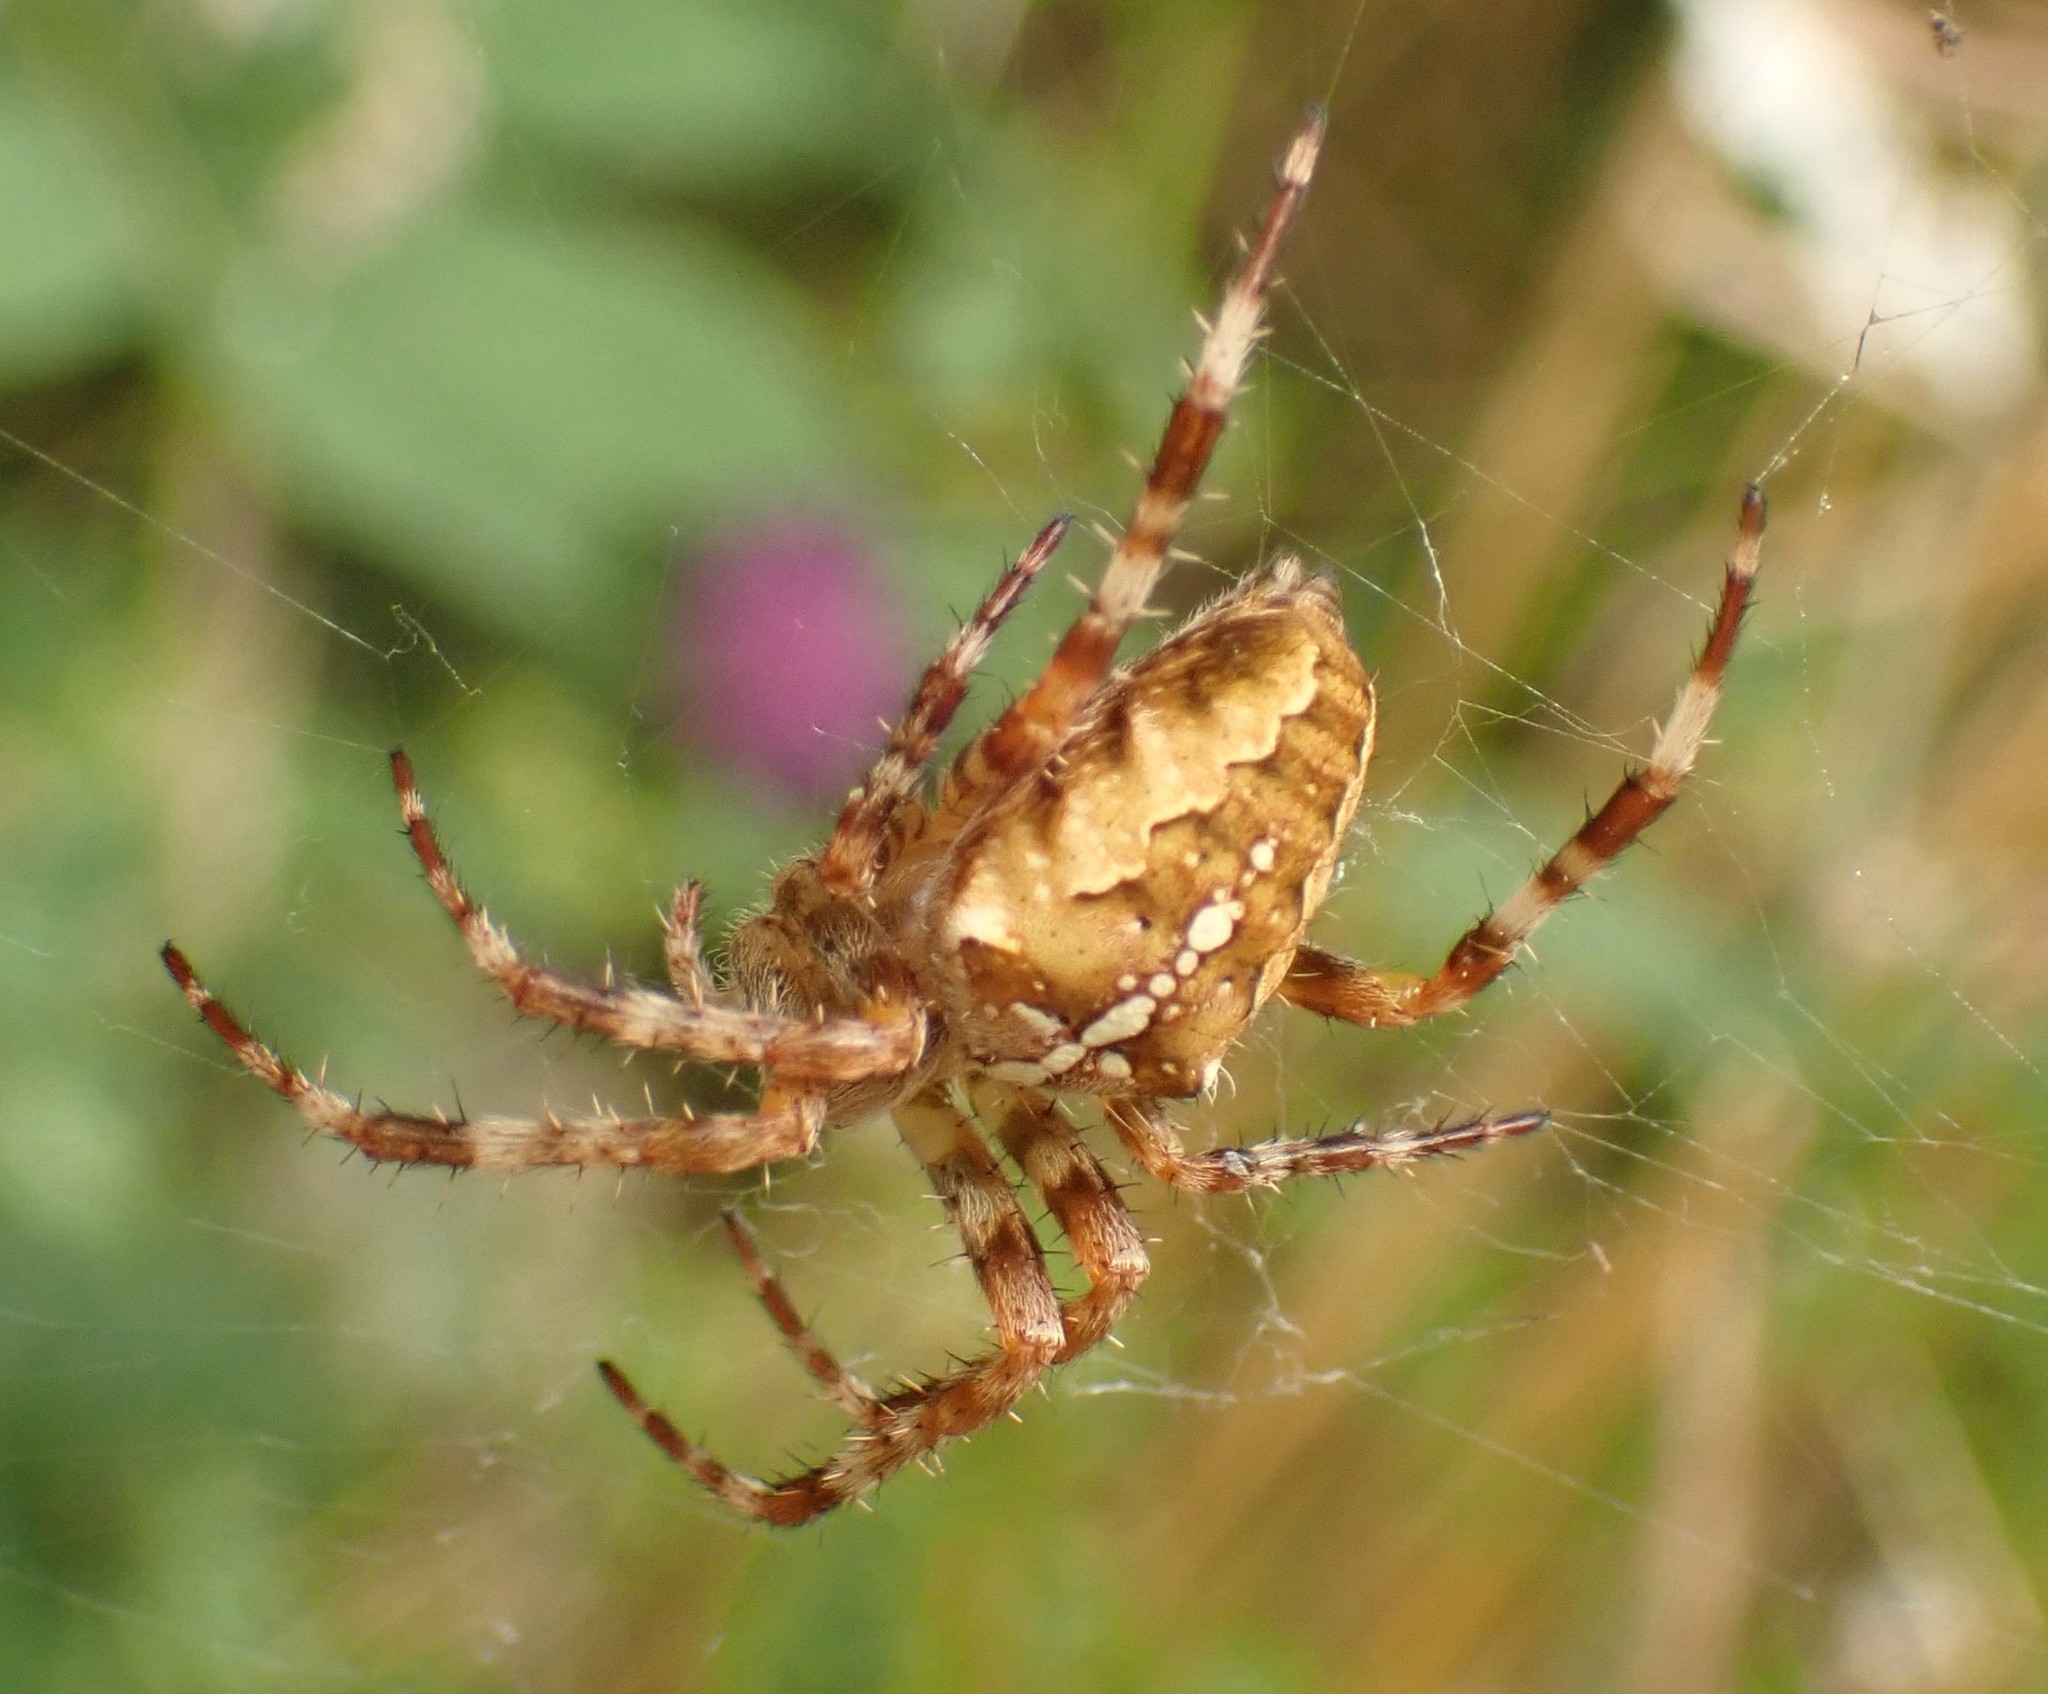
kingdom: Animalia
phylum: Arthropoda
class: Arachnida
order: Araneae
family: Araneidae
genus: Araneus
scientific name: Araneus diadematus
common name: Cross orbweaver
